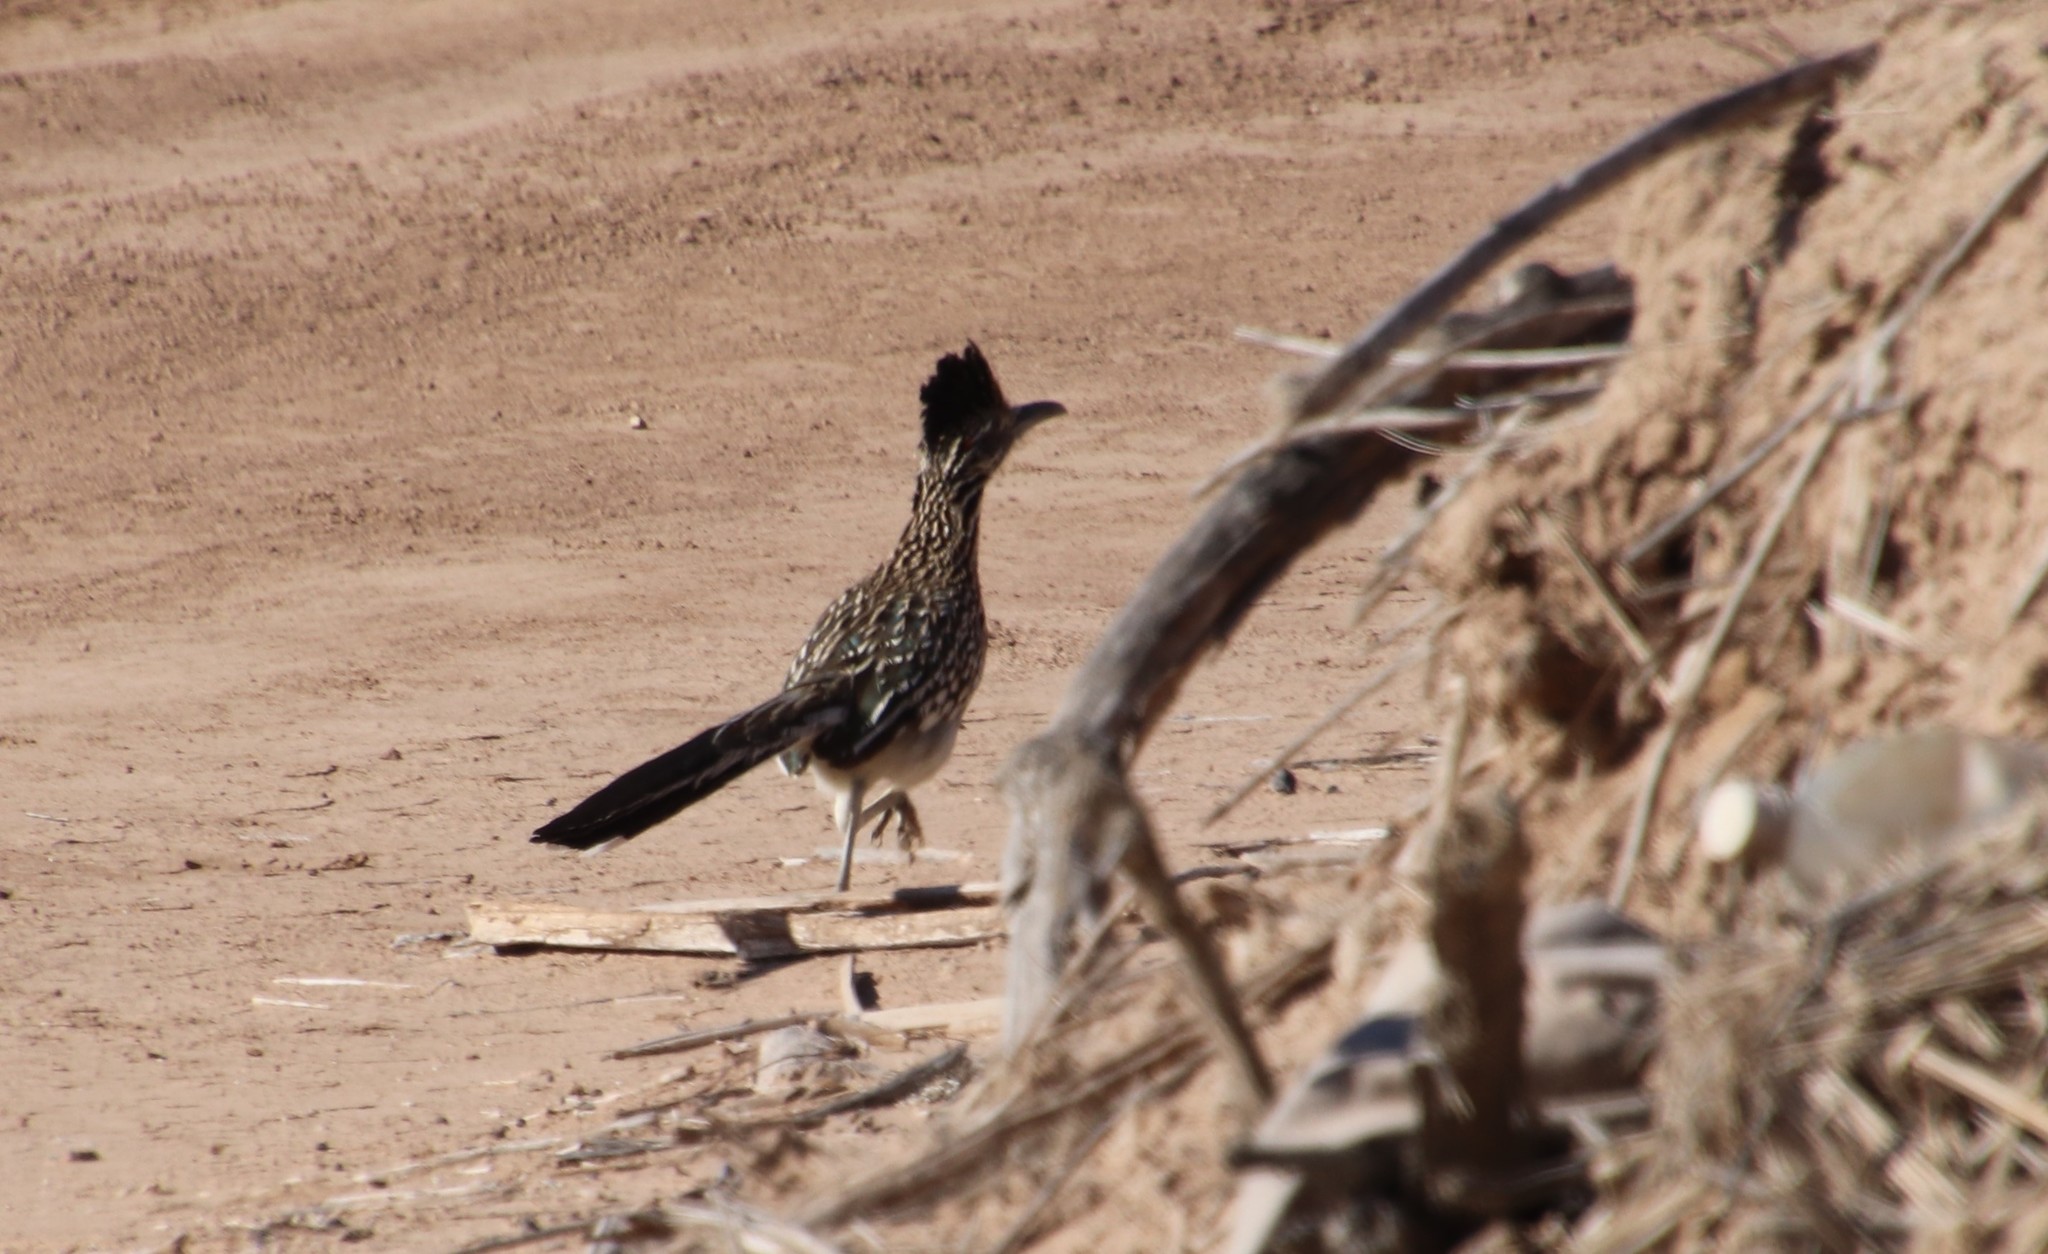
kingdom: Animalia
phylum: Chordata
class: Aves
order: Cuculiformes
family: Cuculidae
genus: Geococcyx
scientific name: Geococcyx californianus
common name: Greater roadrunner
